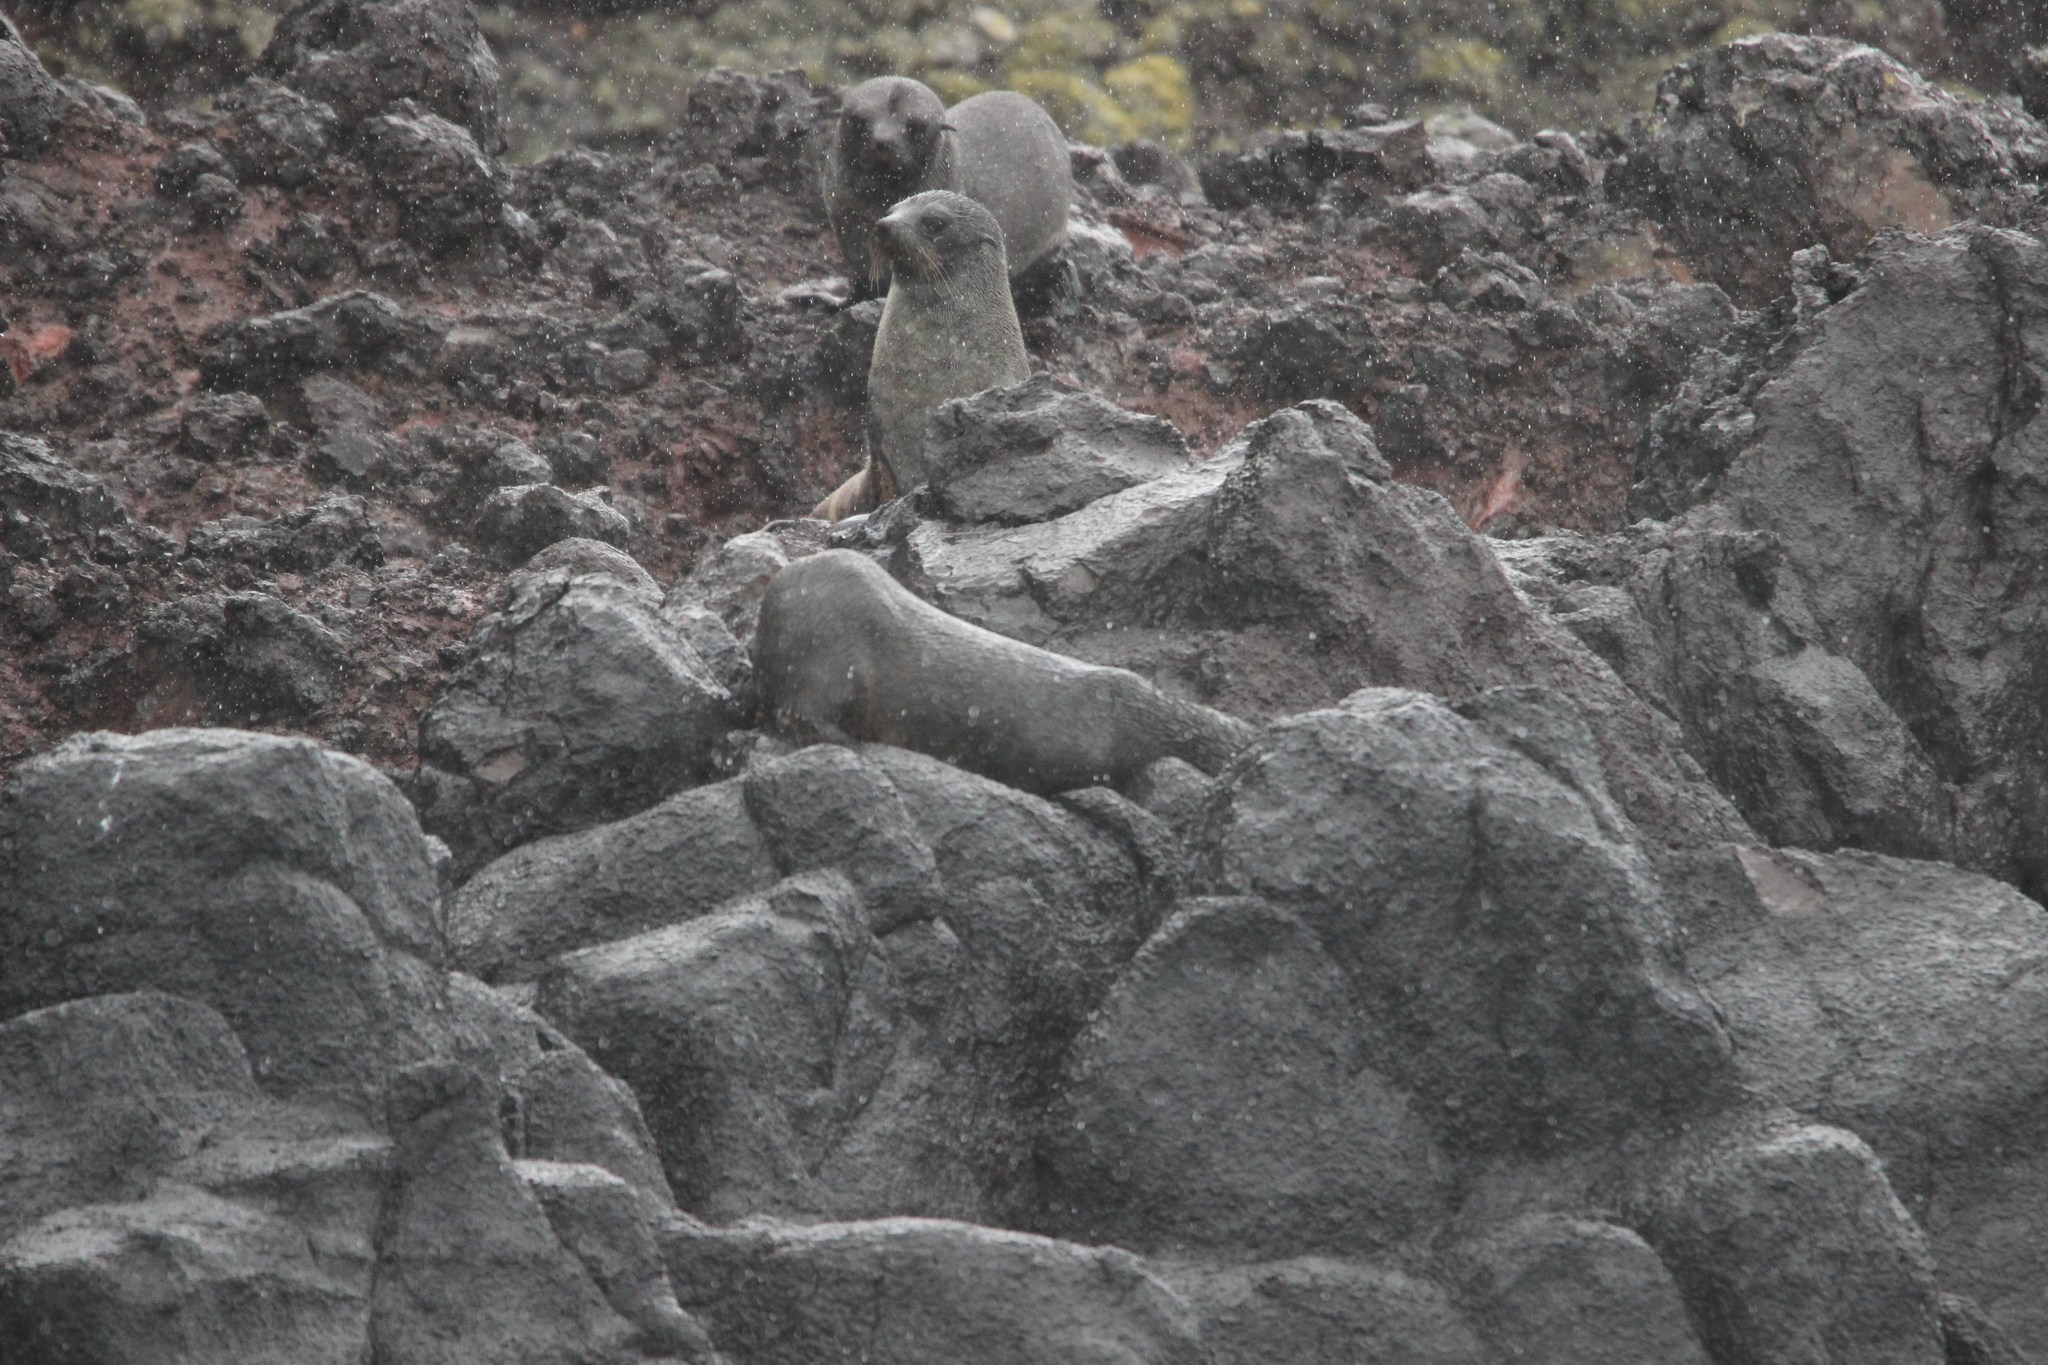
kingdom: Animalia
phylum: Chordata
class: Mammalia
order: Carnivora
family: Otariidae
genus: Arctocephalus
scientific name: Arctocephalus forsteri
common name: New zealand fur seal
